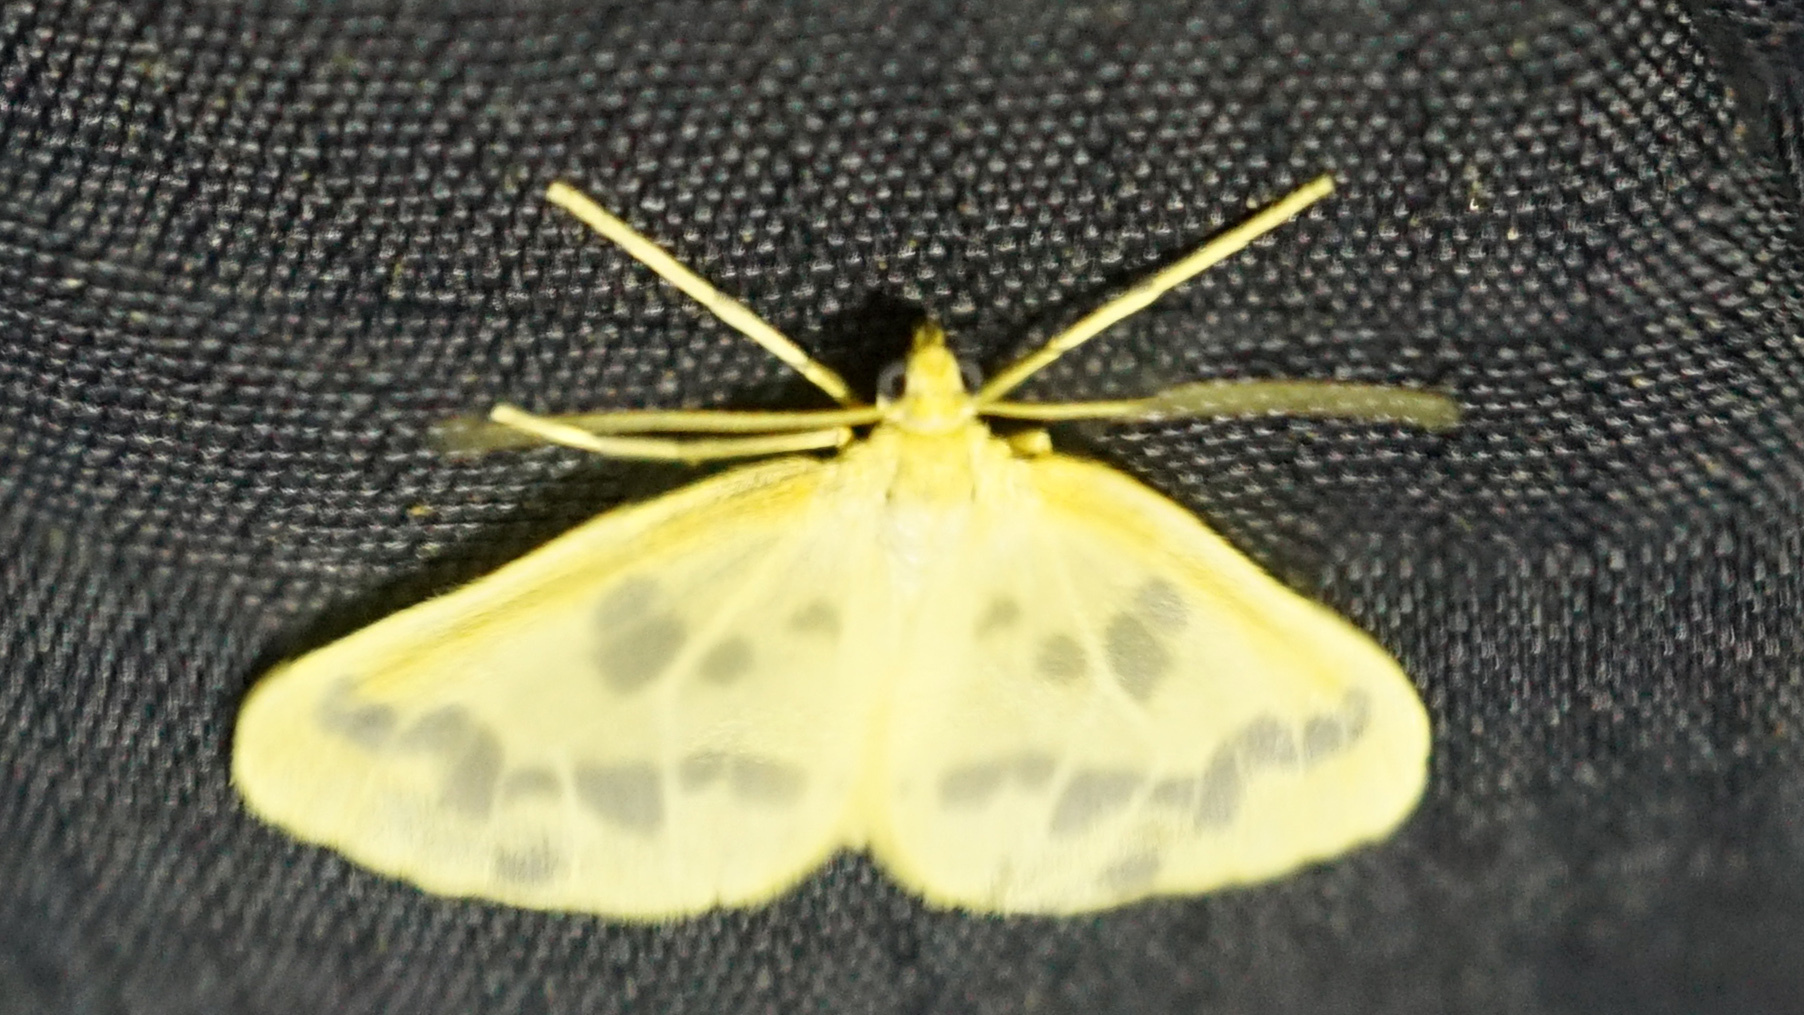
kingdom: Animalia
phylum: Arthropoda
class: Insecta
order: Lepidoptera
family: Geometridae
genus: Eubaphe
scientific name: Eubaphe mendica
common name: Beggar
